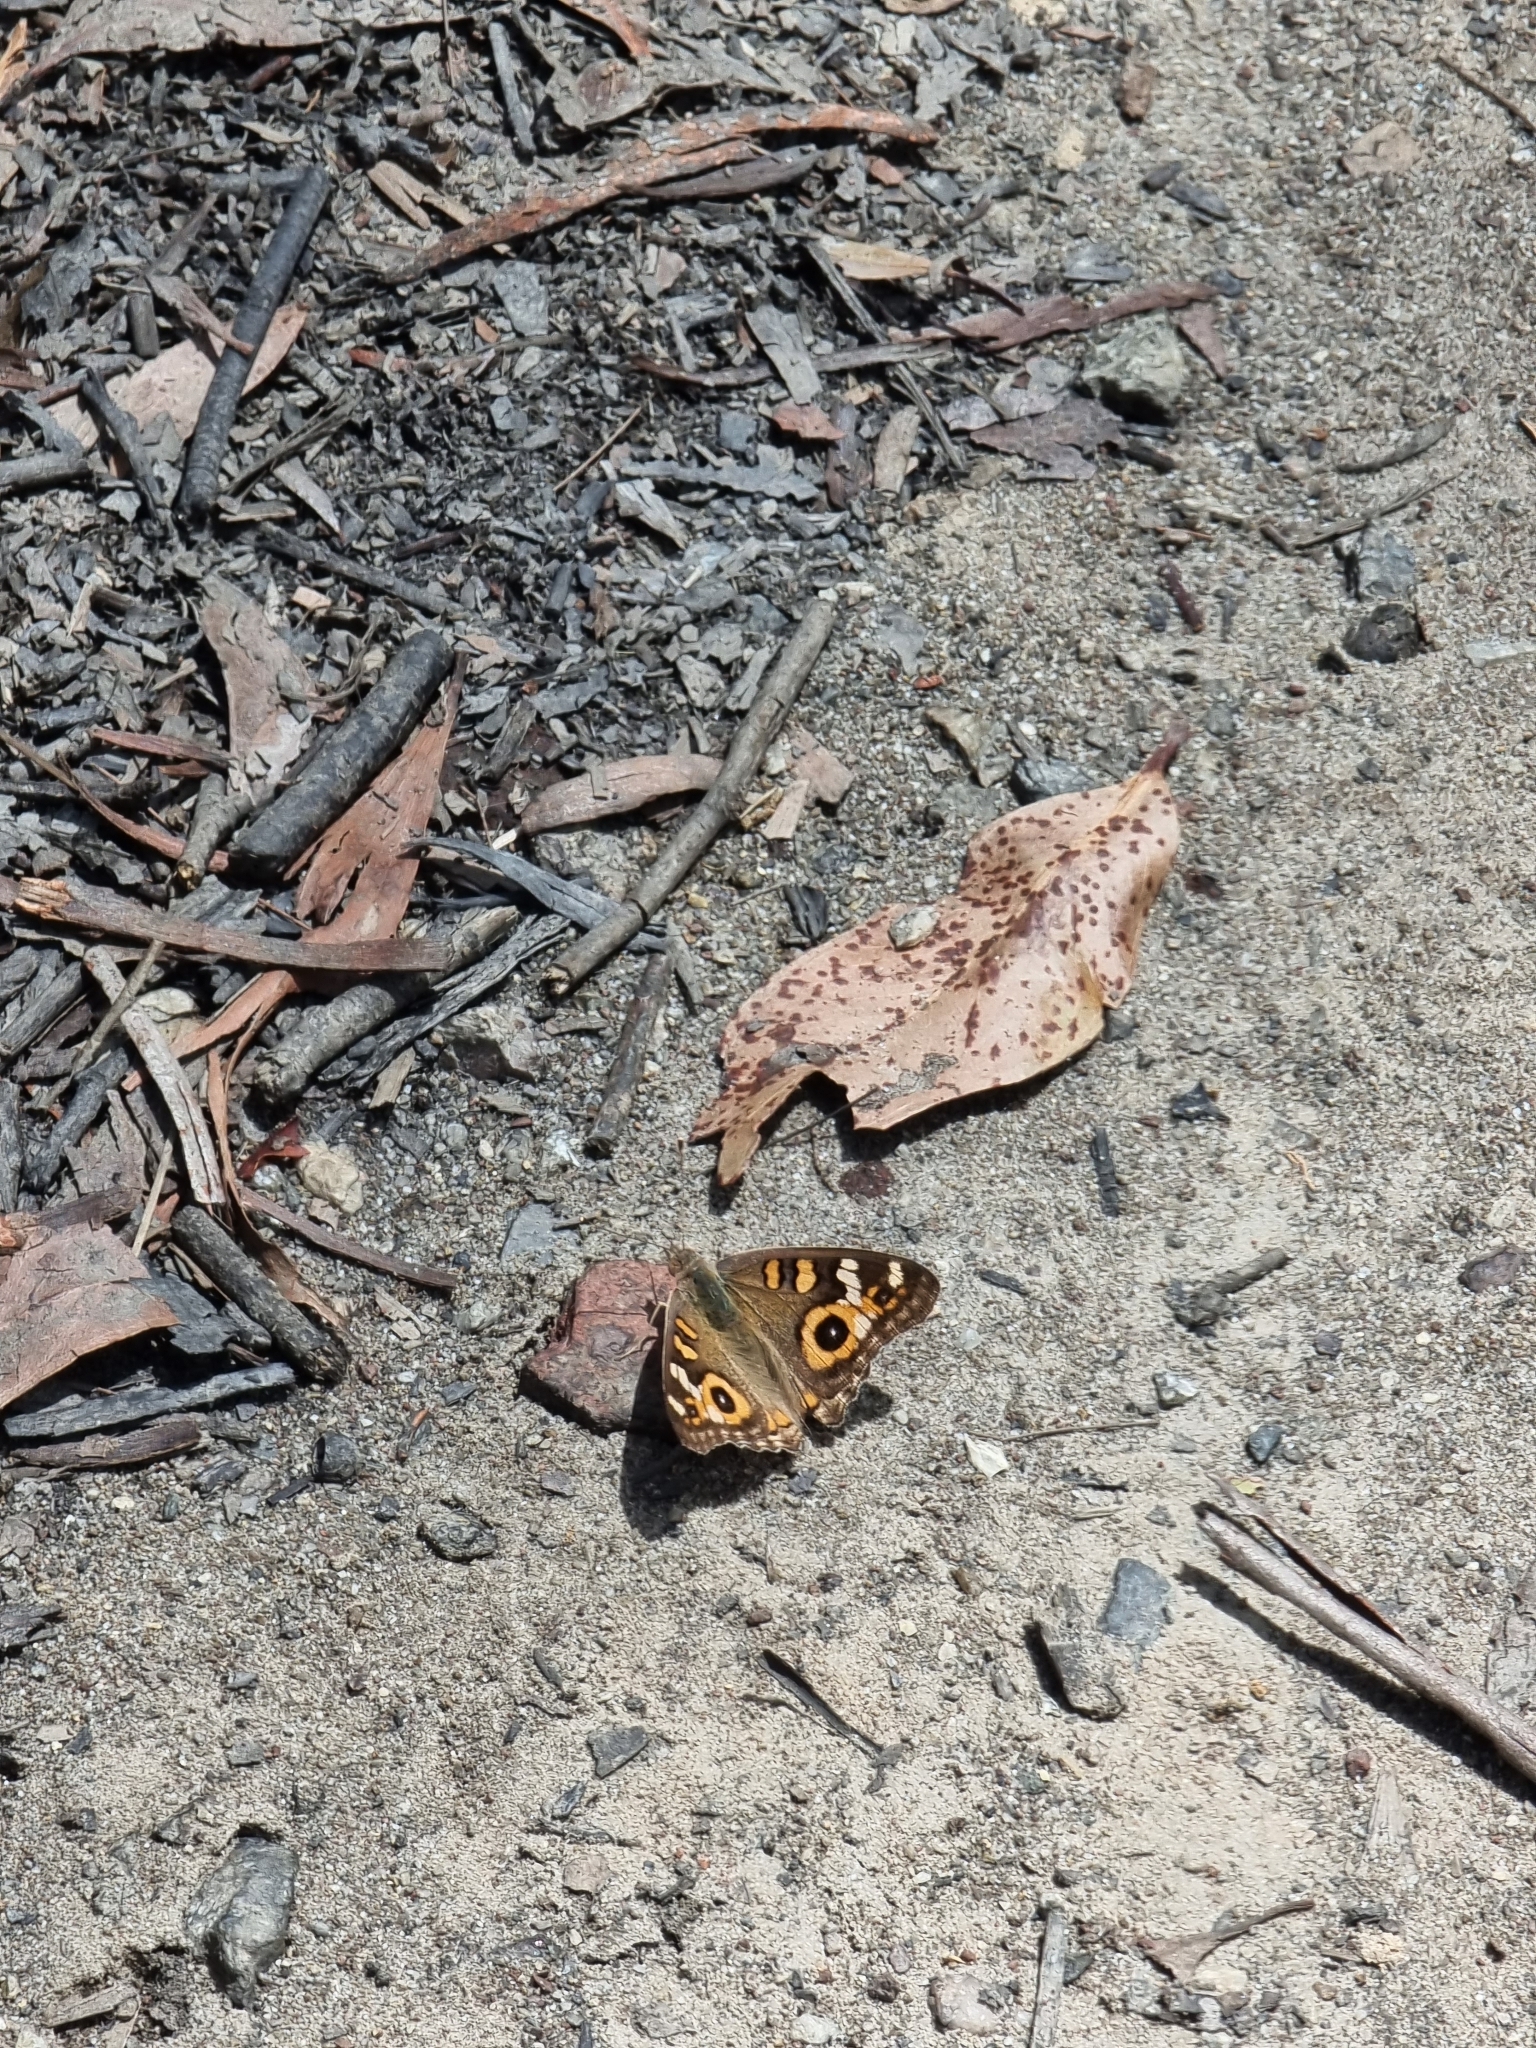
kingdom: Animalia
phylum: Arthropoda
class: Insecta
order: Lepidoptera
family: Nymphalidae
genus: Junonia
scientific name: Junonia villida
